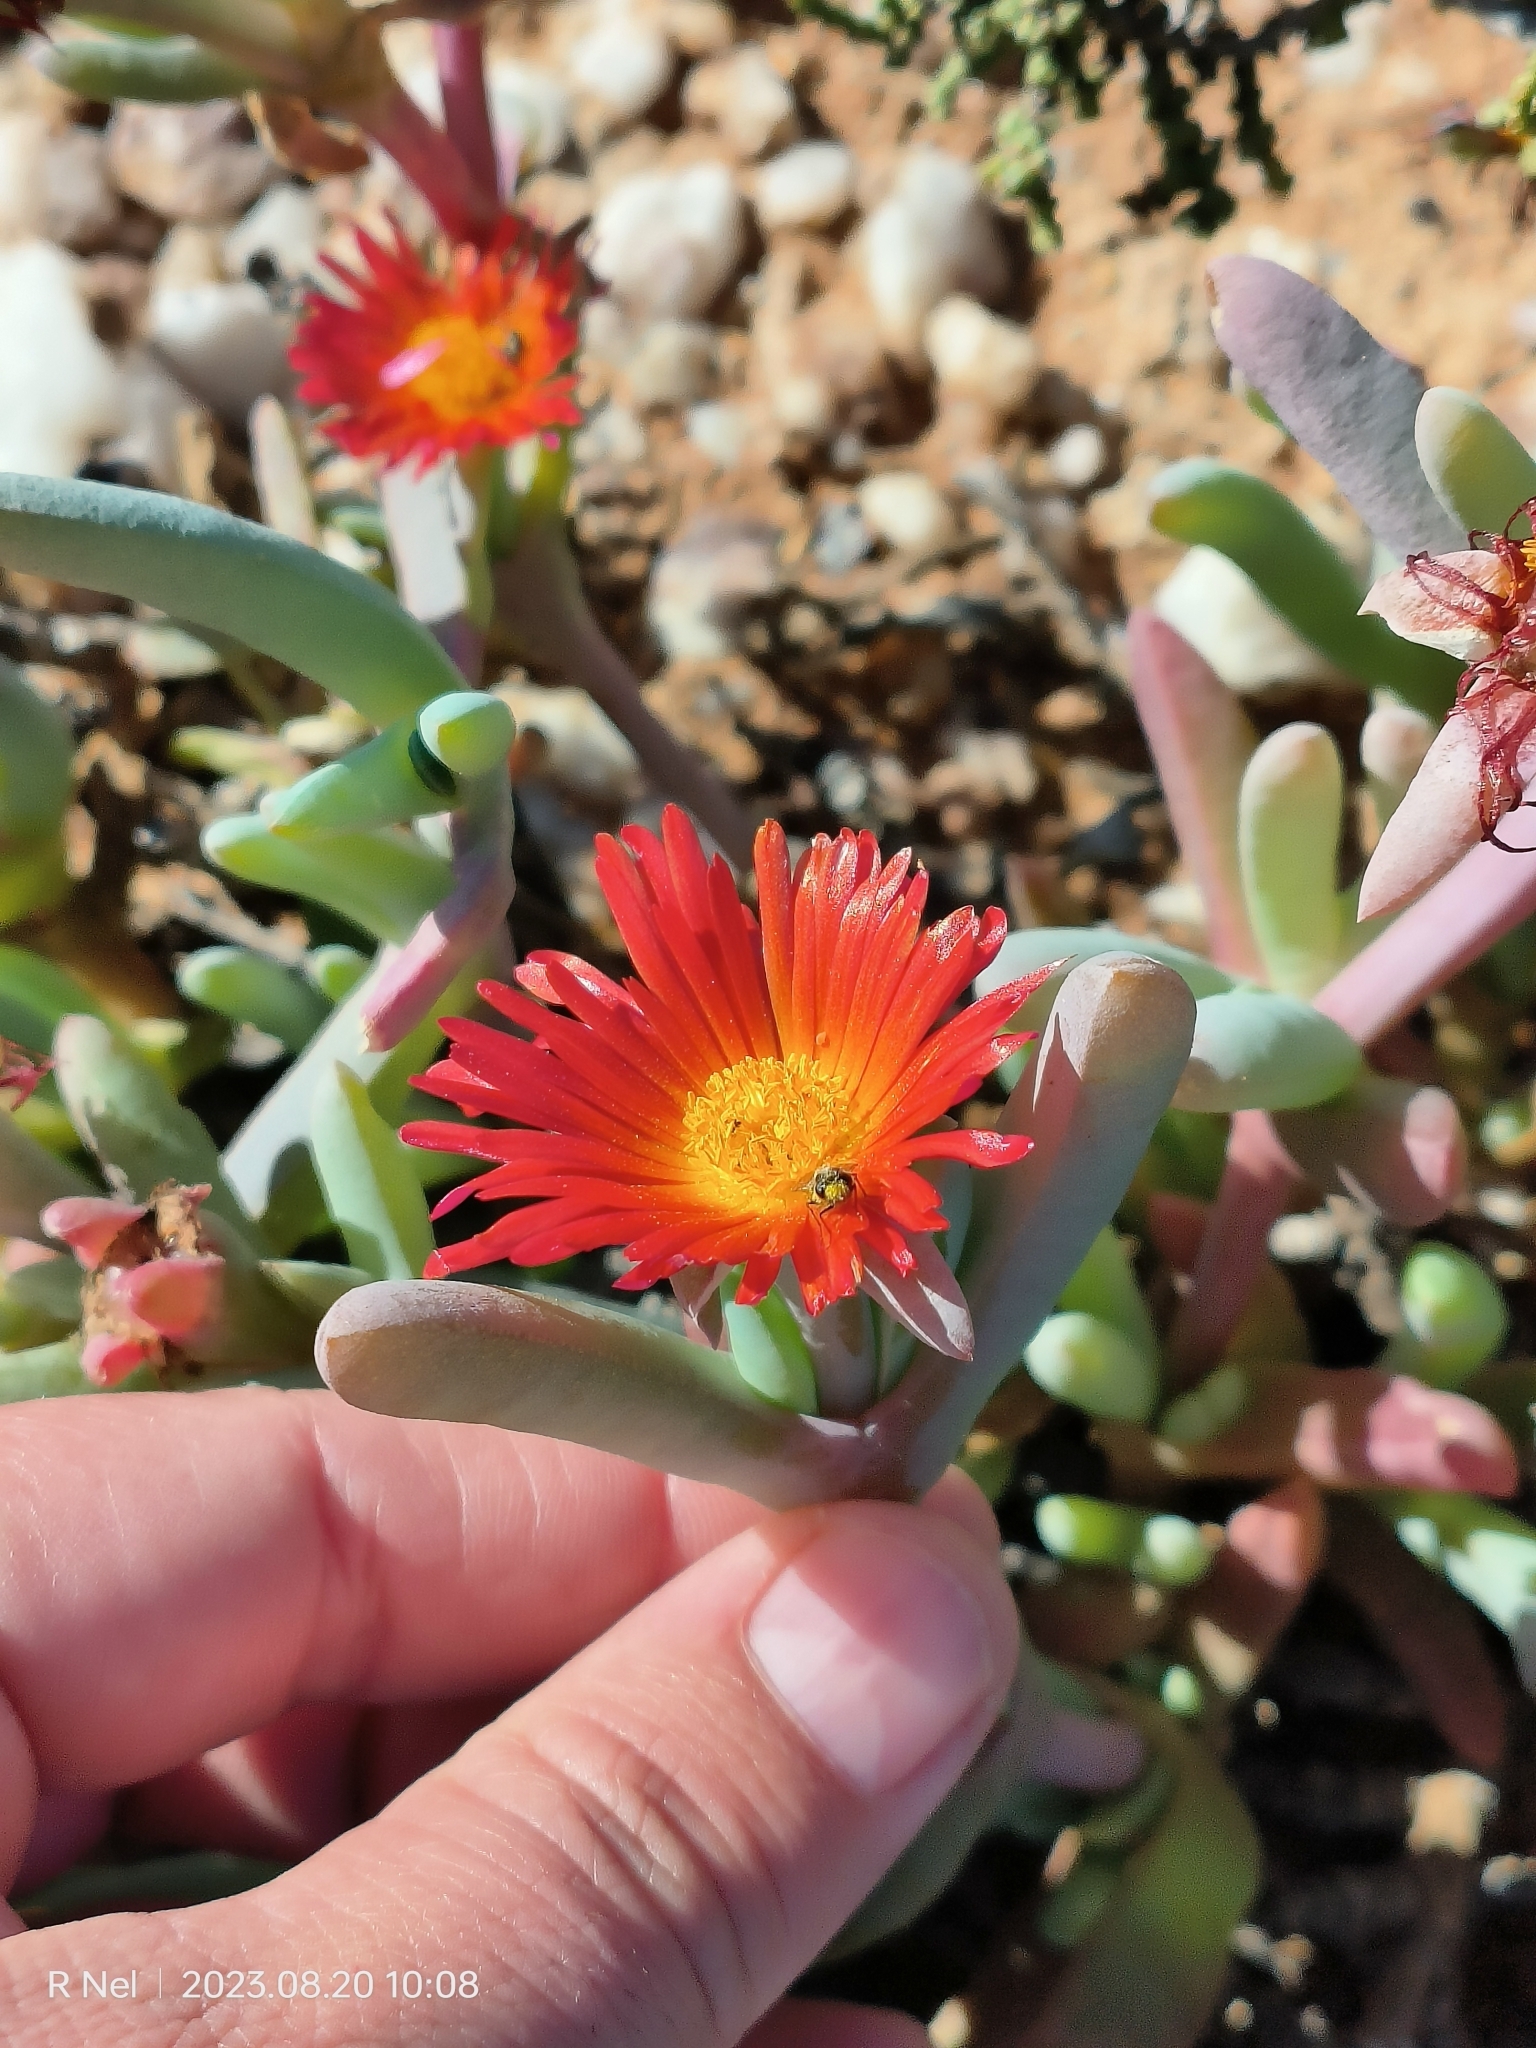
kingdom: Plantae
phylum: Tracheophyta
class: Magnoliopsida
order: Caryophyllales
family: Aizoaceae
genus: Malephora
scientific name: Malephora purpureocrocea
